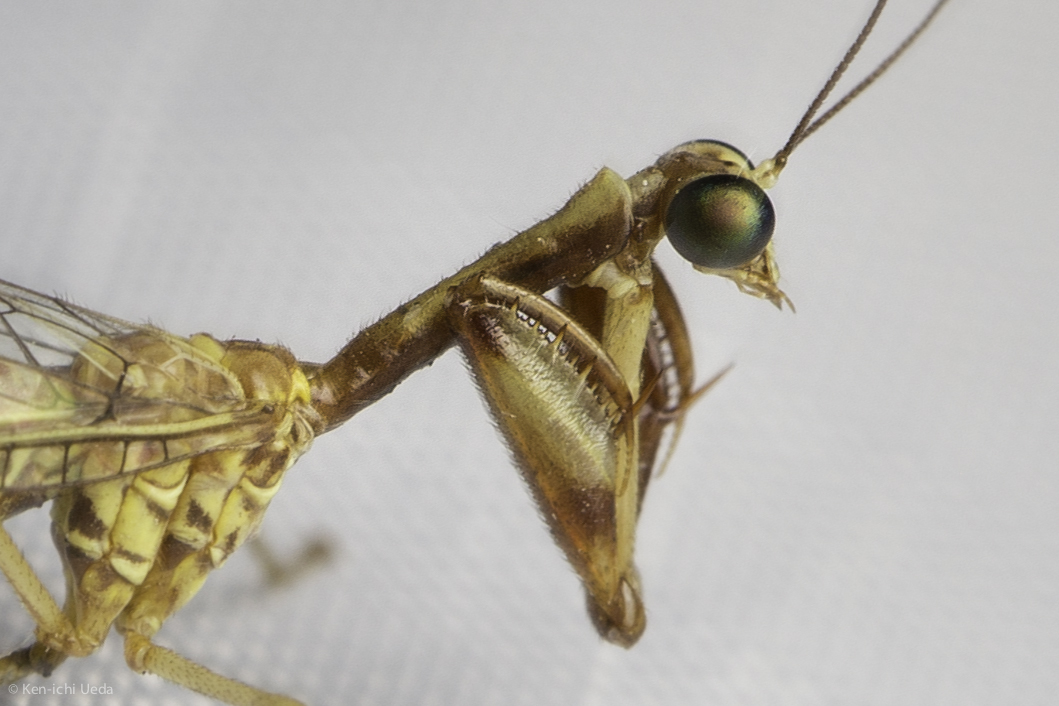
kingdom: Animalia
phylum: Arthropoda
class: Insecta
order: Neuroptera
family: Mantispidae
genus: Leptomantispa
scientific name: Leptomantispa pulchella
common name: Stevens's mantidfly
